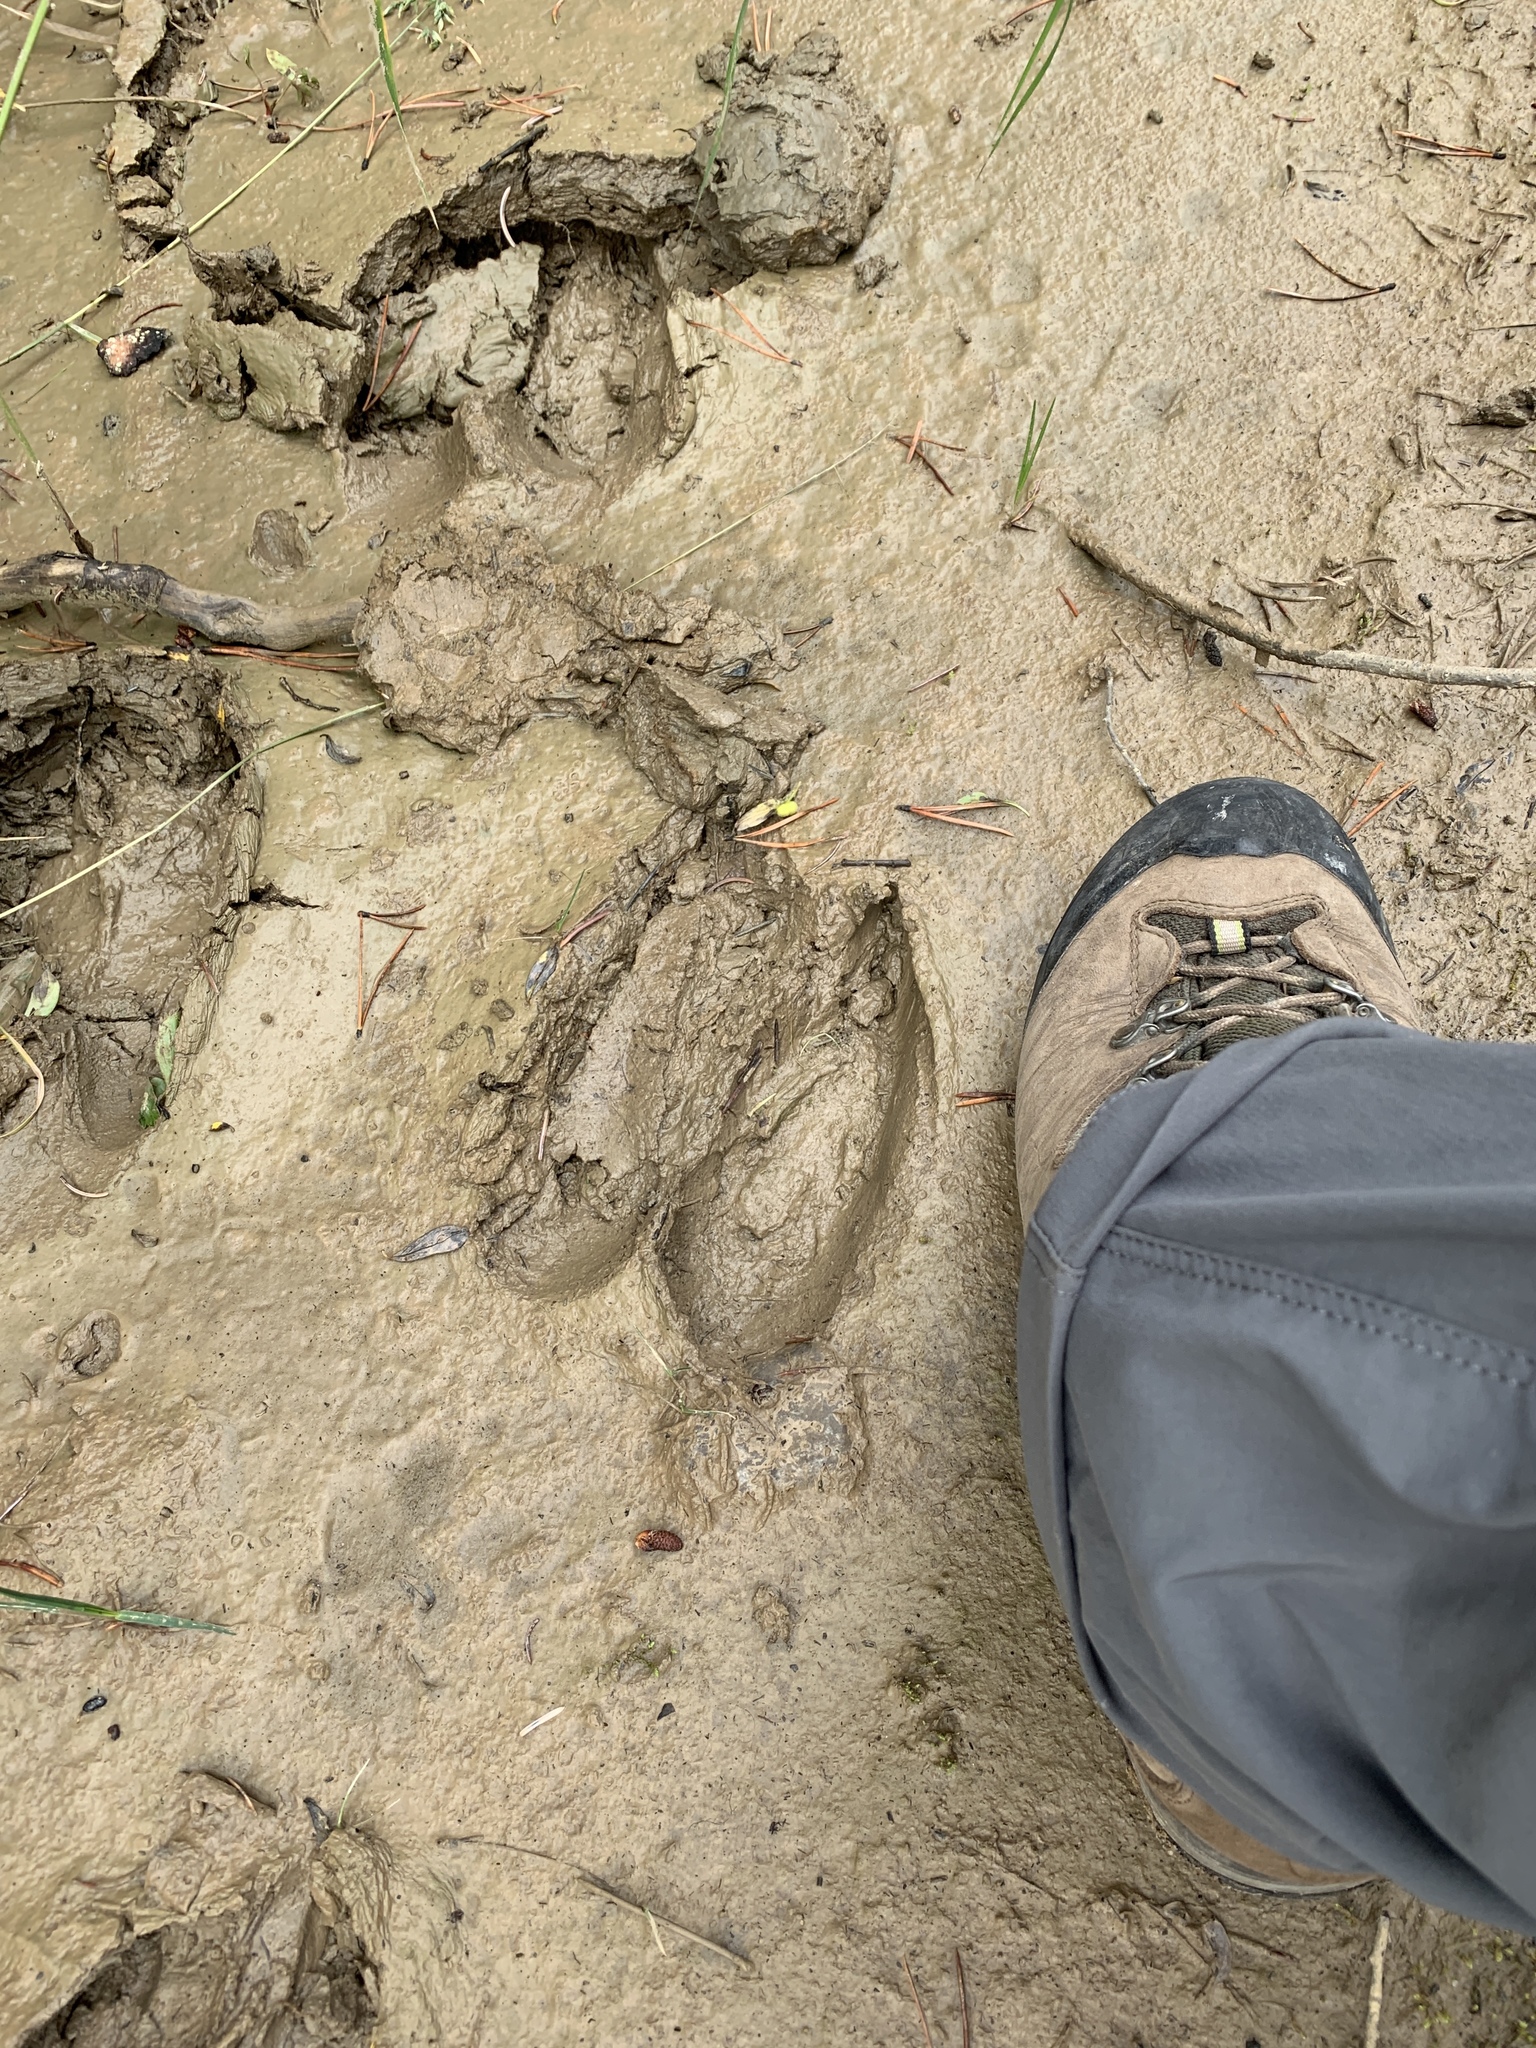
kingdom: Animalia
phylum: Chordata
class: Mammalia
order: Artiodactyla
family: Cervidae
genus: Alces
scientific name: Alces americanus
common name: Moose
